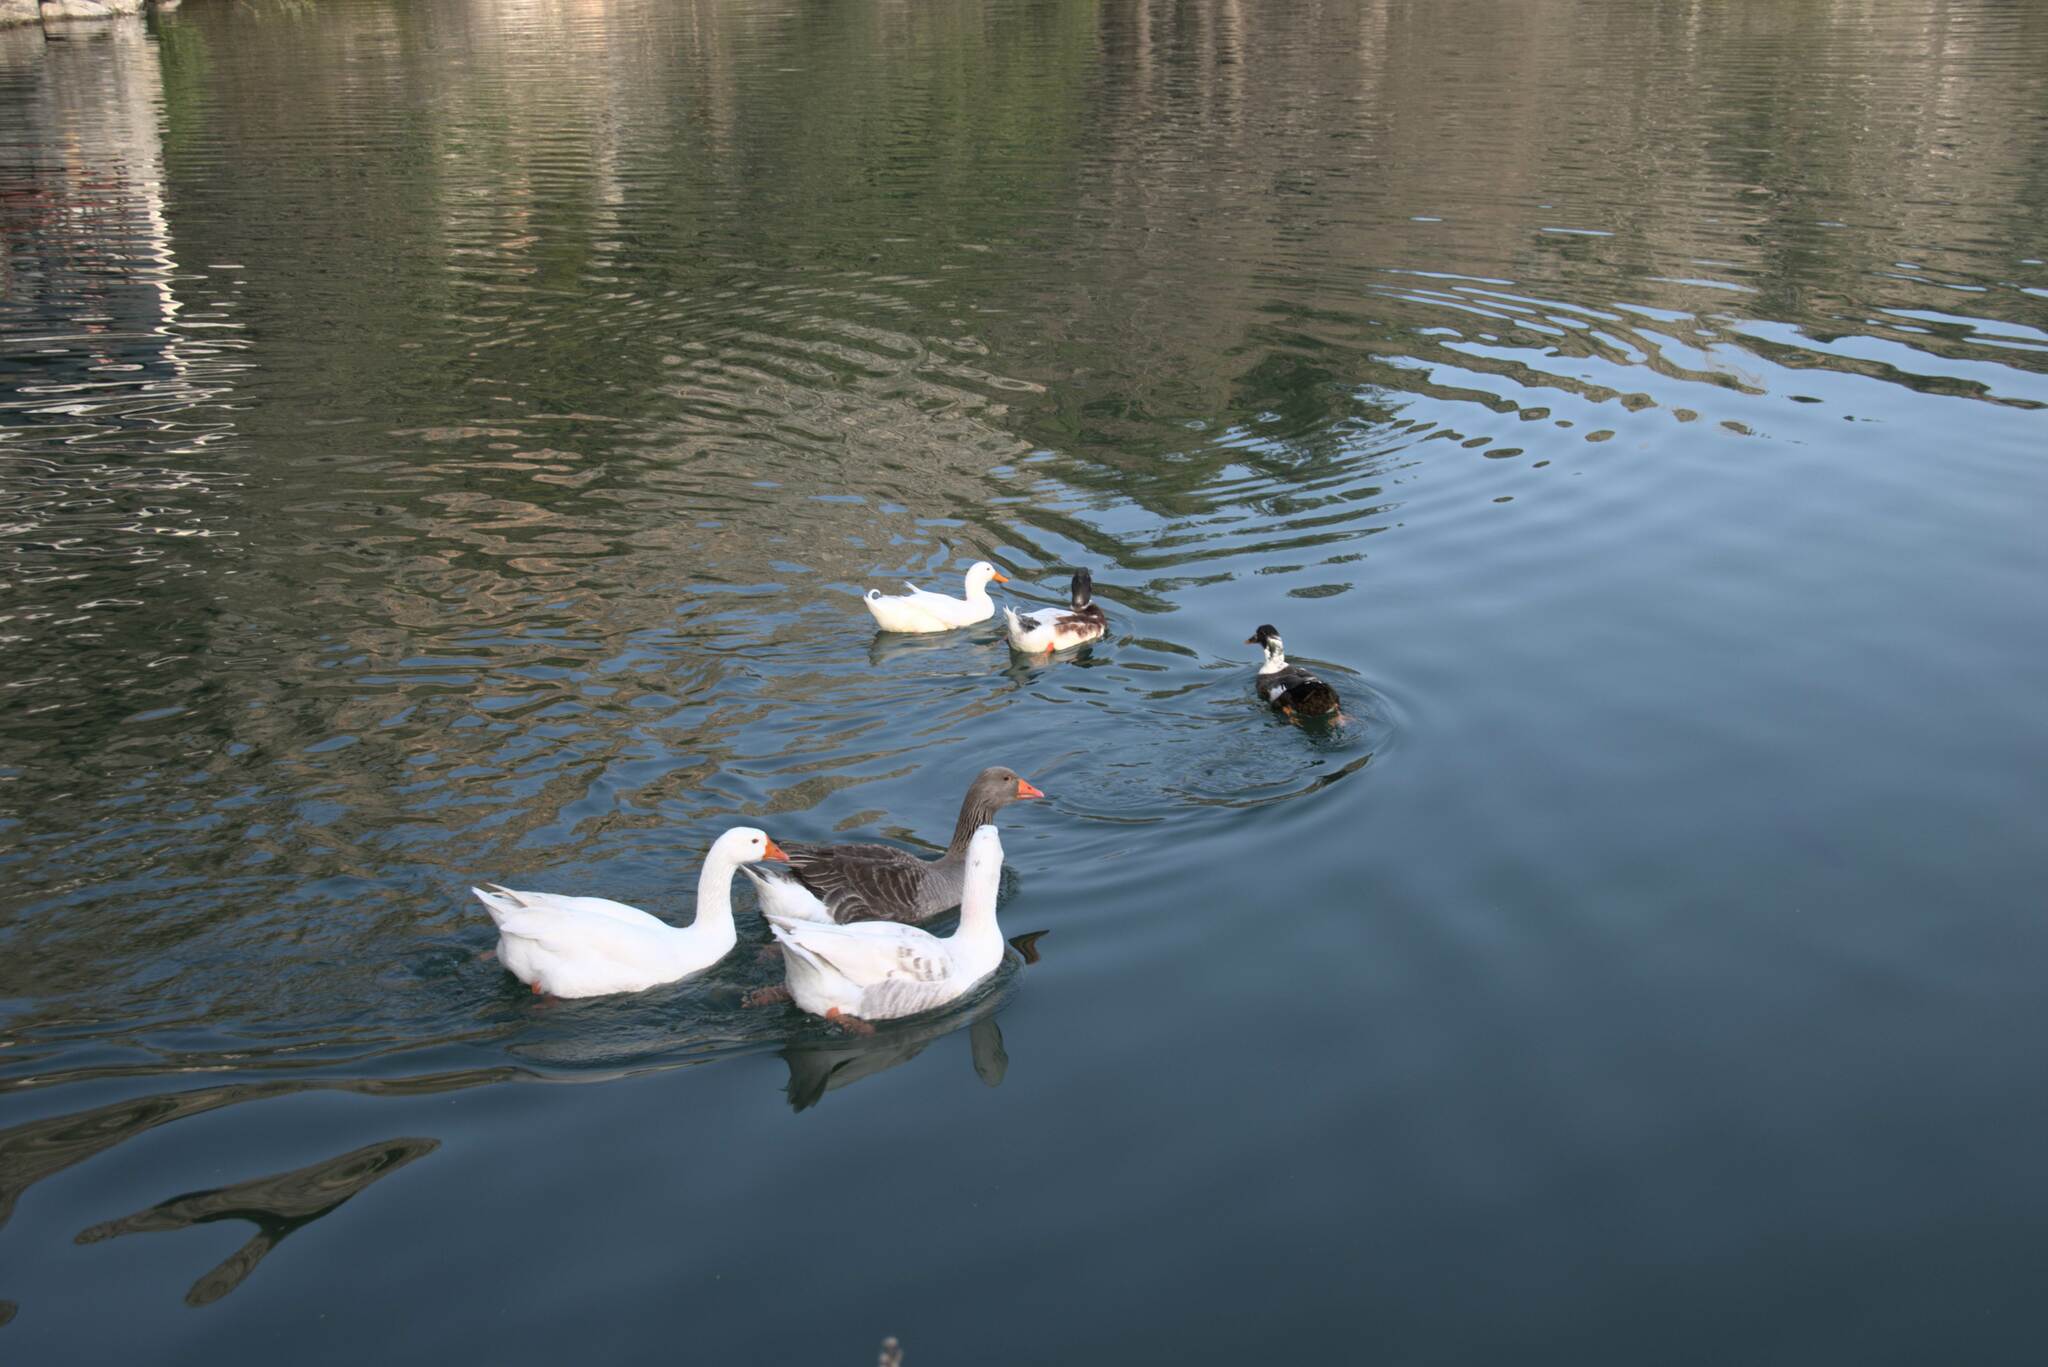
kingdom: Animalia
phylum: Chordata
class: Aves
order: Anseriformes
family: Anatidae
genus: Anser
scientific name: Anser anser
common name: Greylag goose
